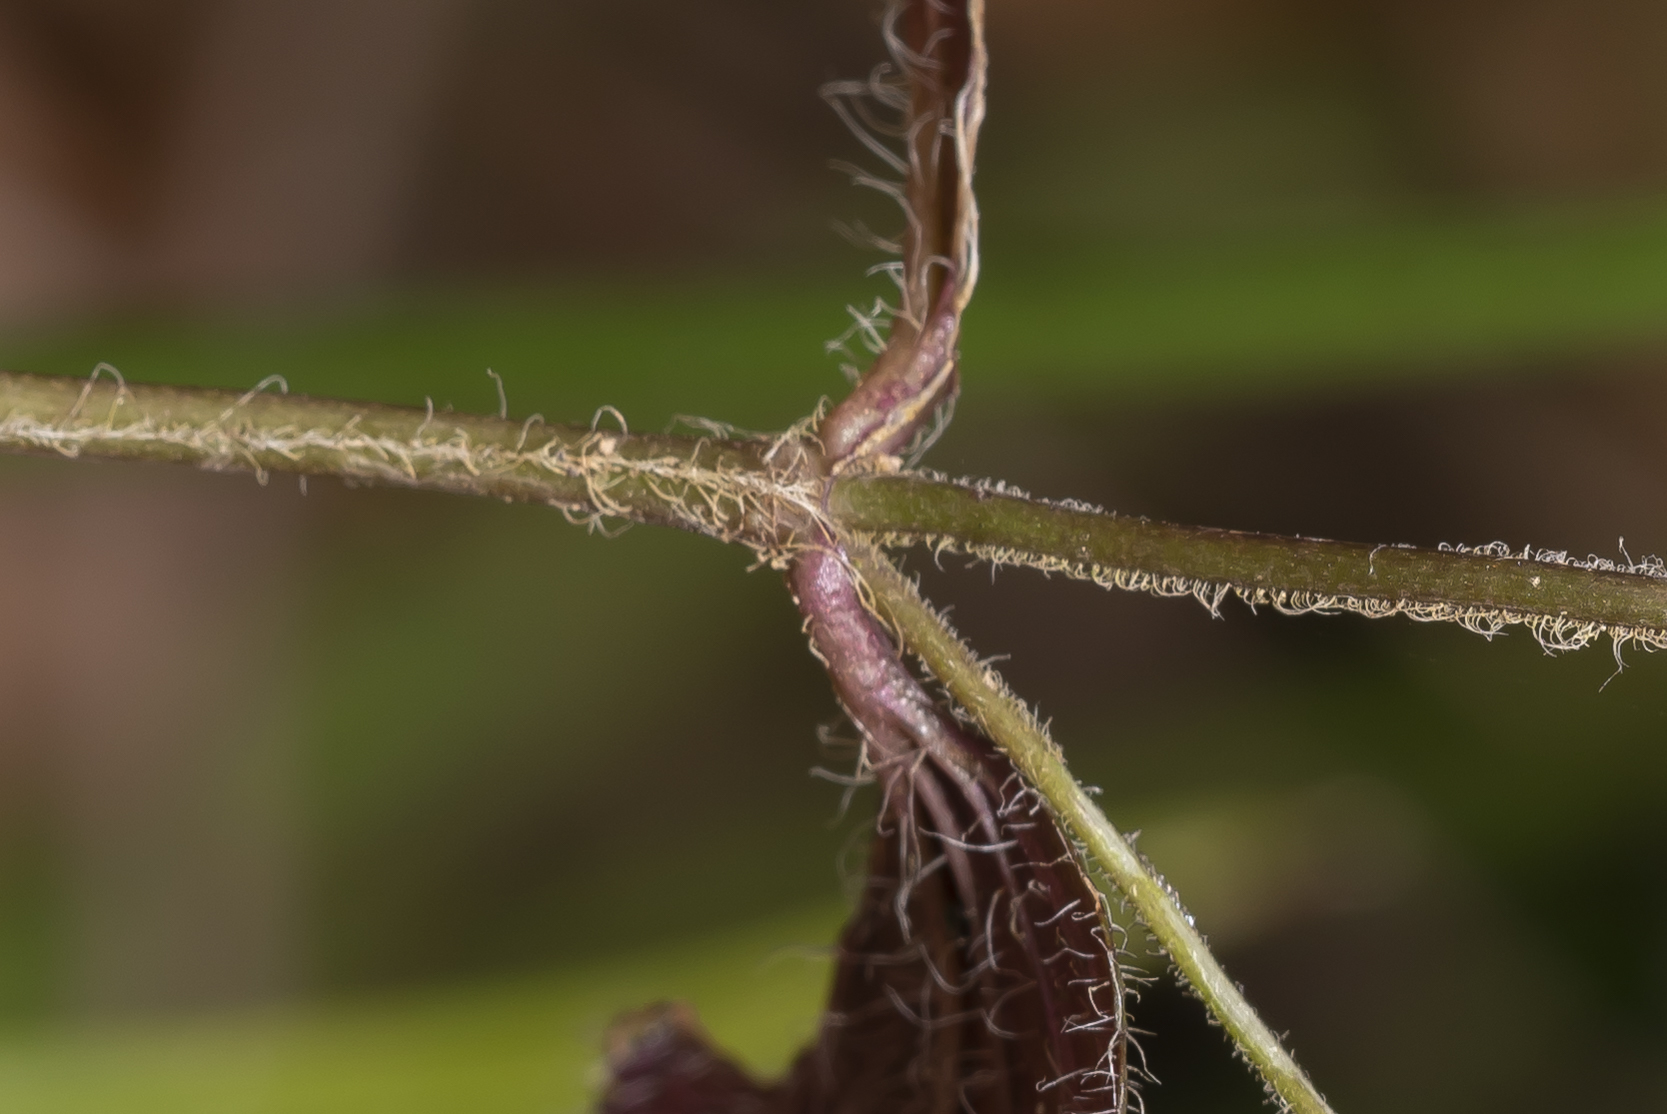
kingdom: Plantae
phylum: Tracheophyta
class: Magnoliopsida
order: Lamiales
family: Plantaginaceae
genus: Veronica
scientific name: Veronica chamaedrys
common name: Germander speedwell
